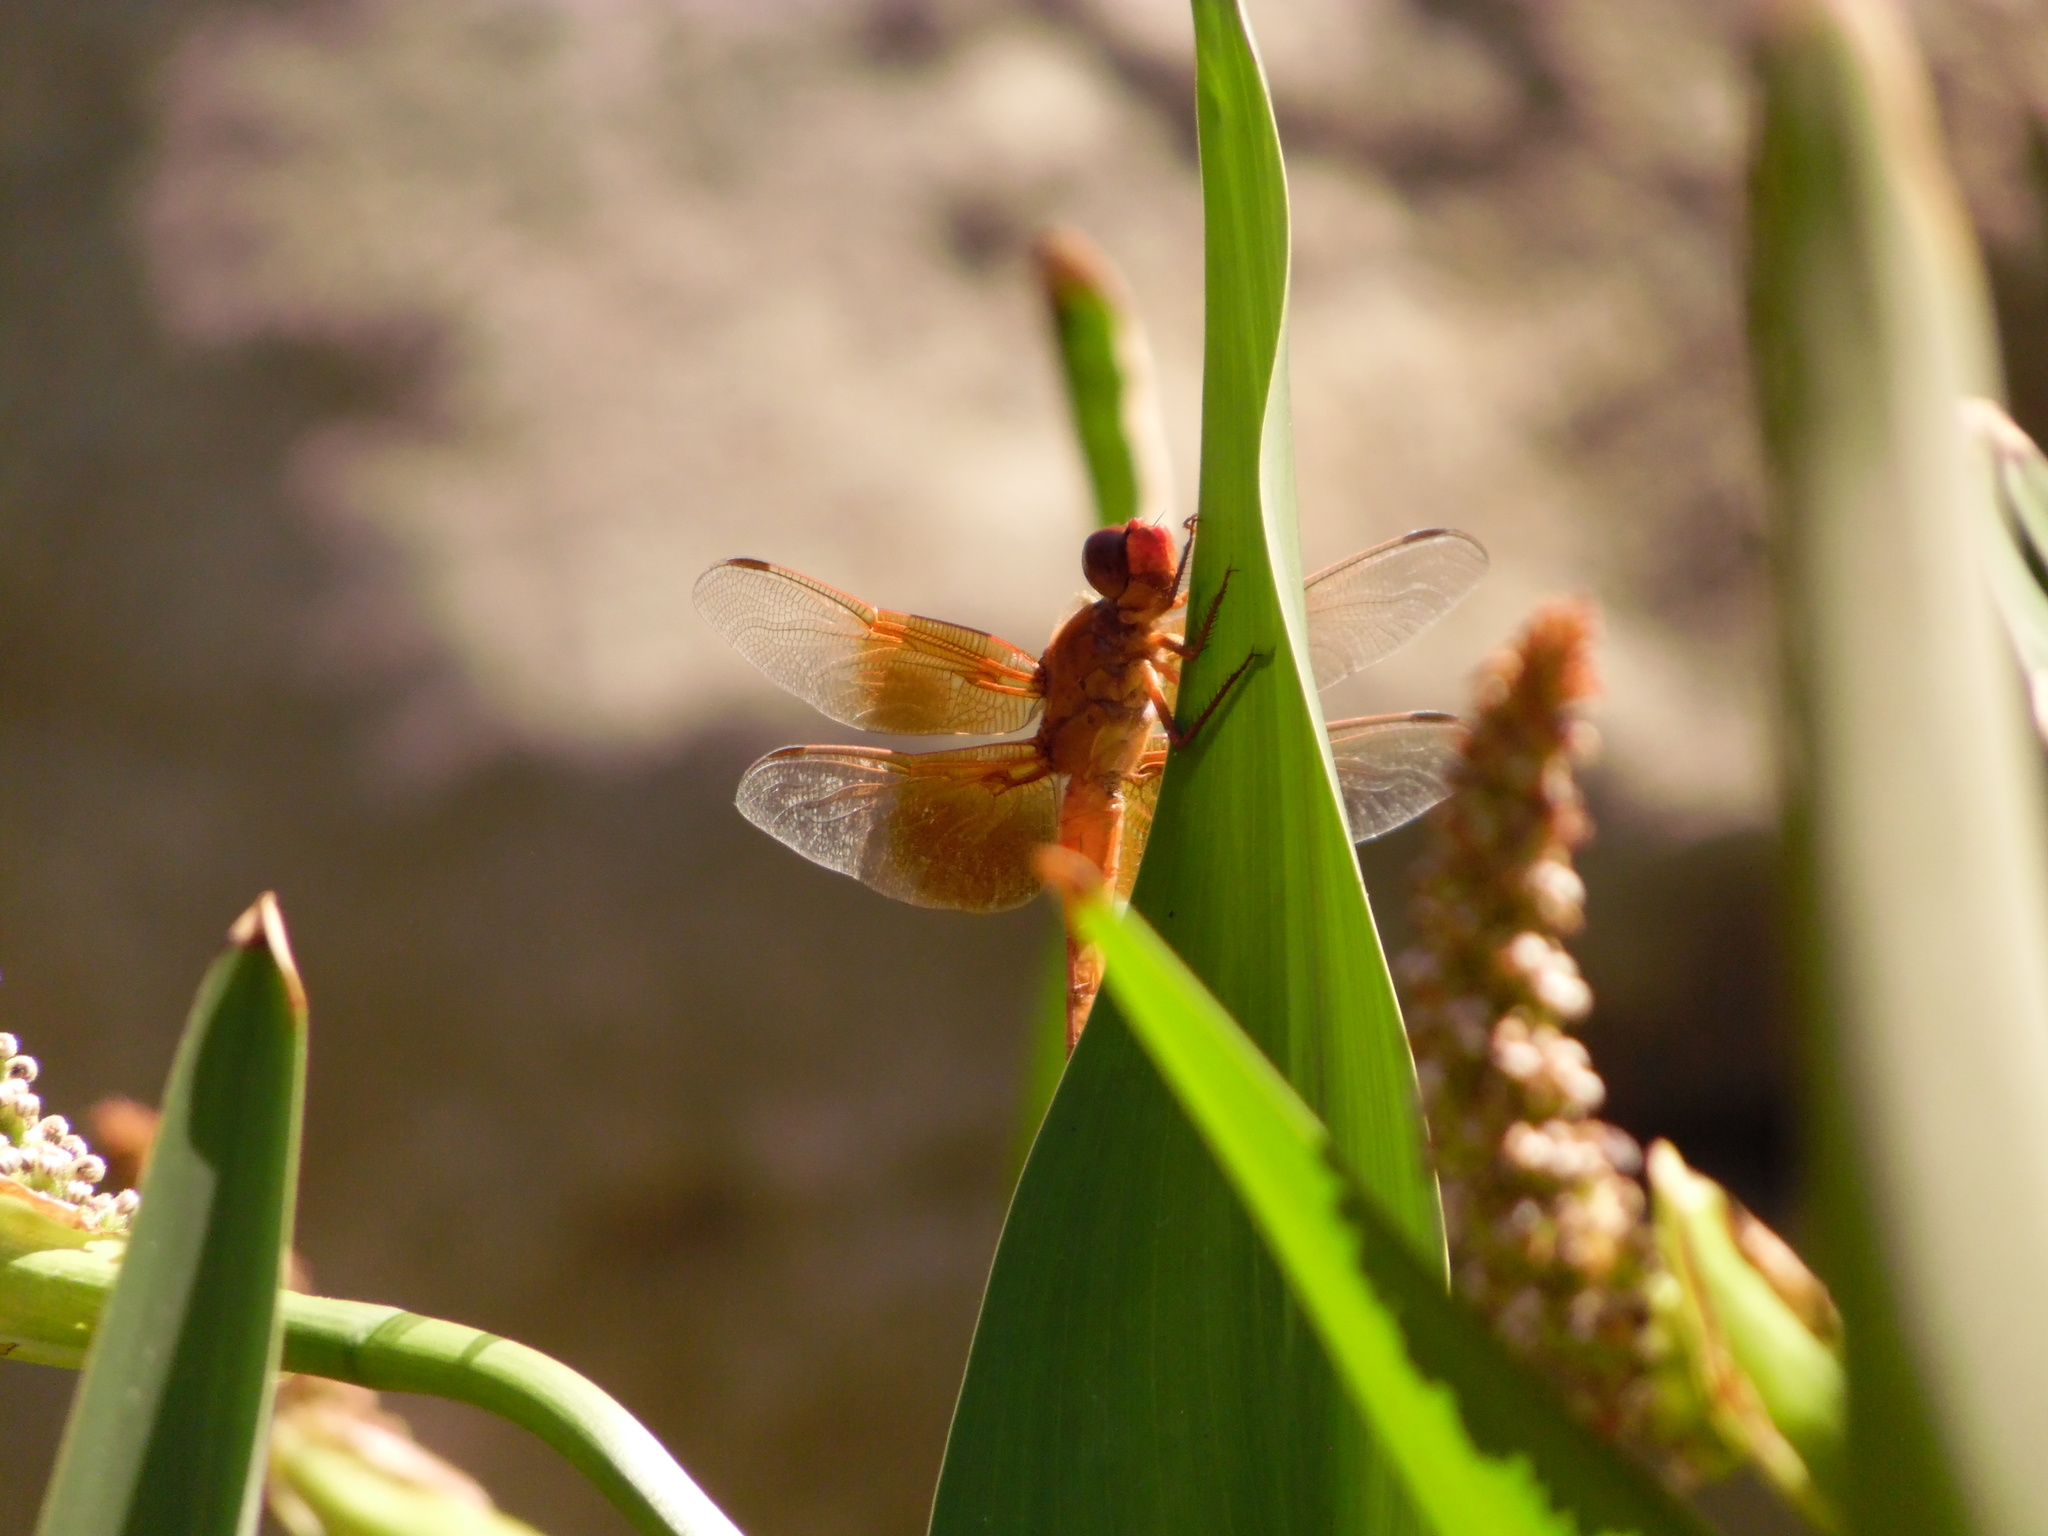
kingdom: Animalia
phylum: Arthropoda
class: Insecta
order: Odonata
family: Libellulidae
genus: Libellula
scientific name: Libellula saturata
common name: Flame skimmer
